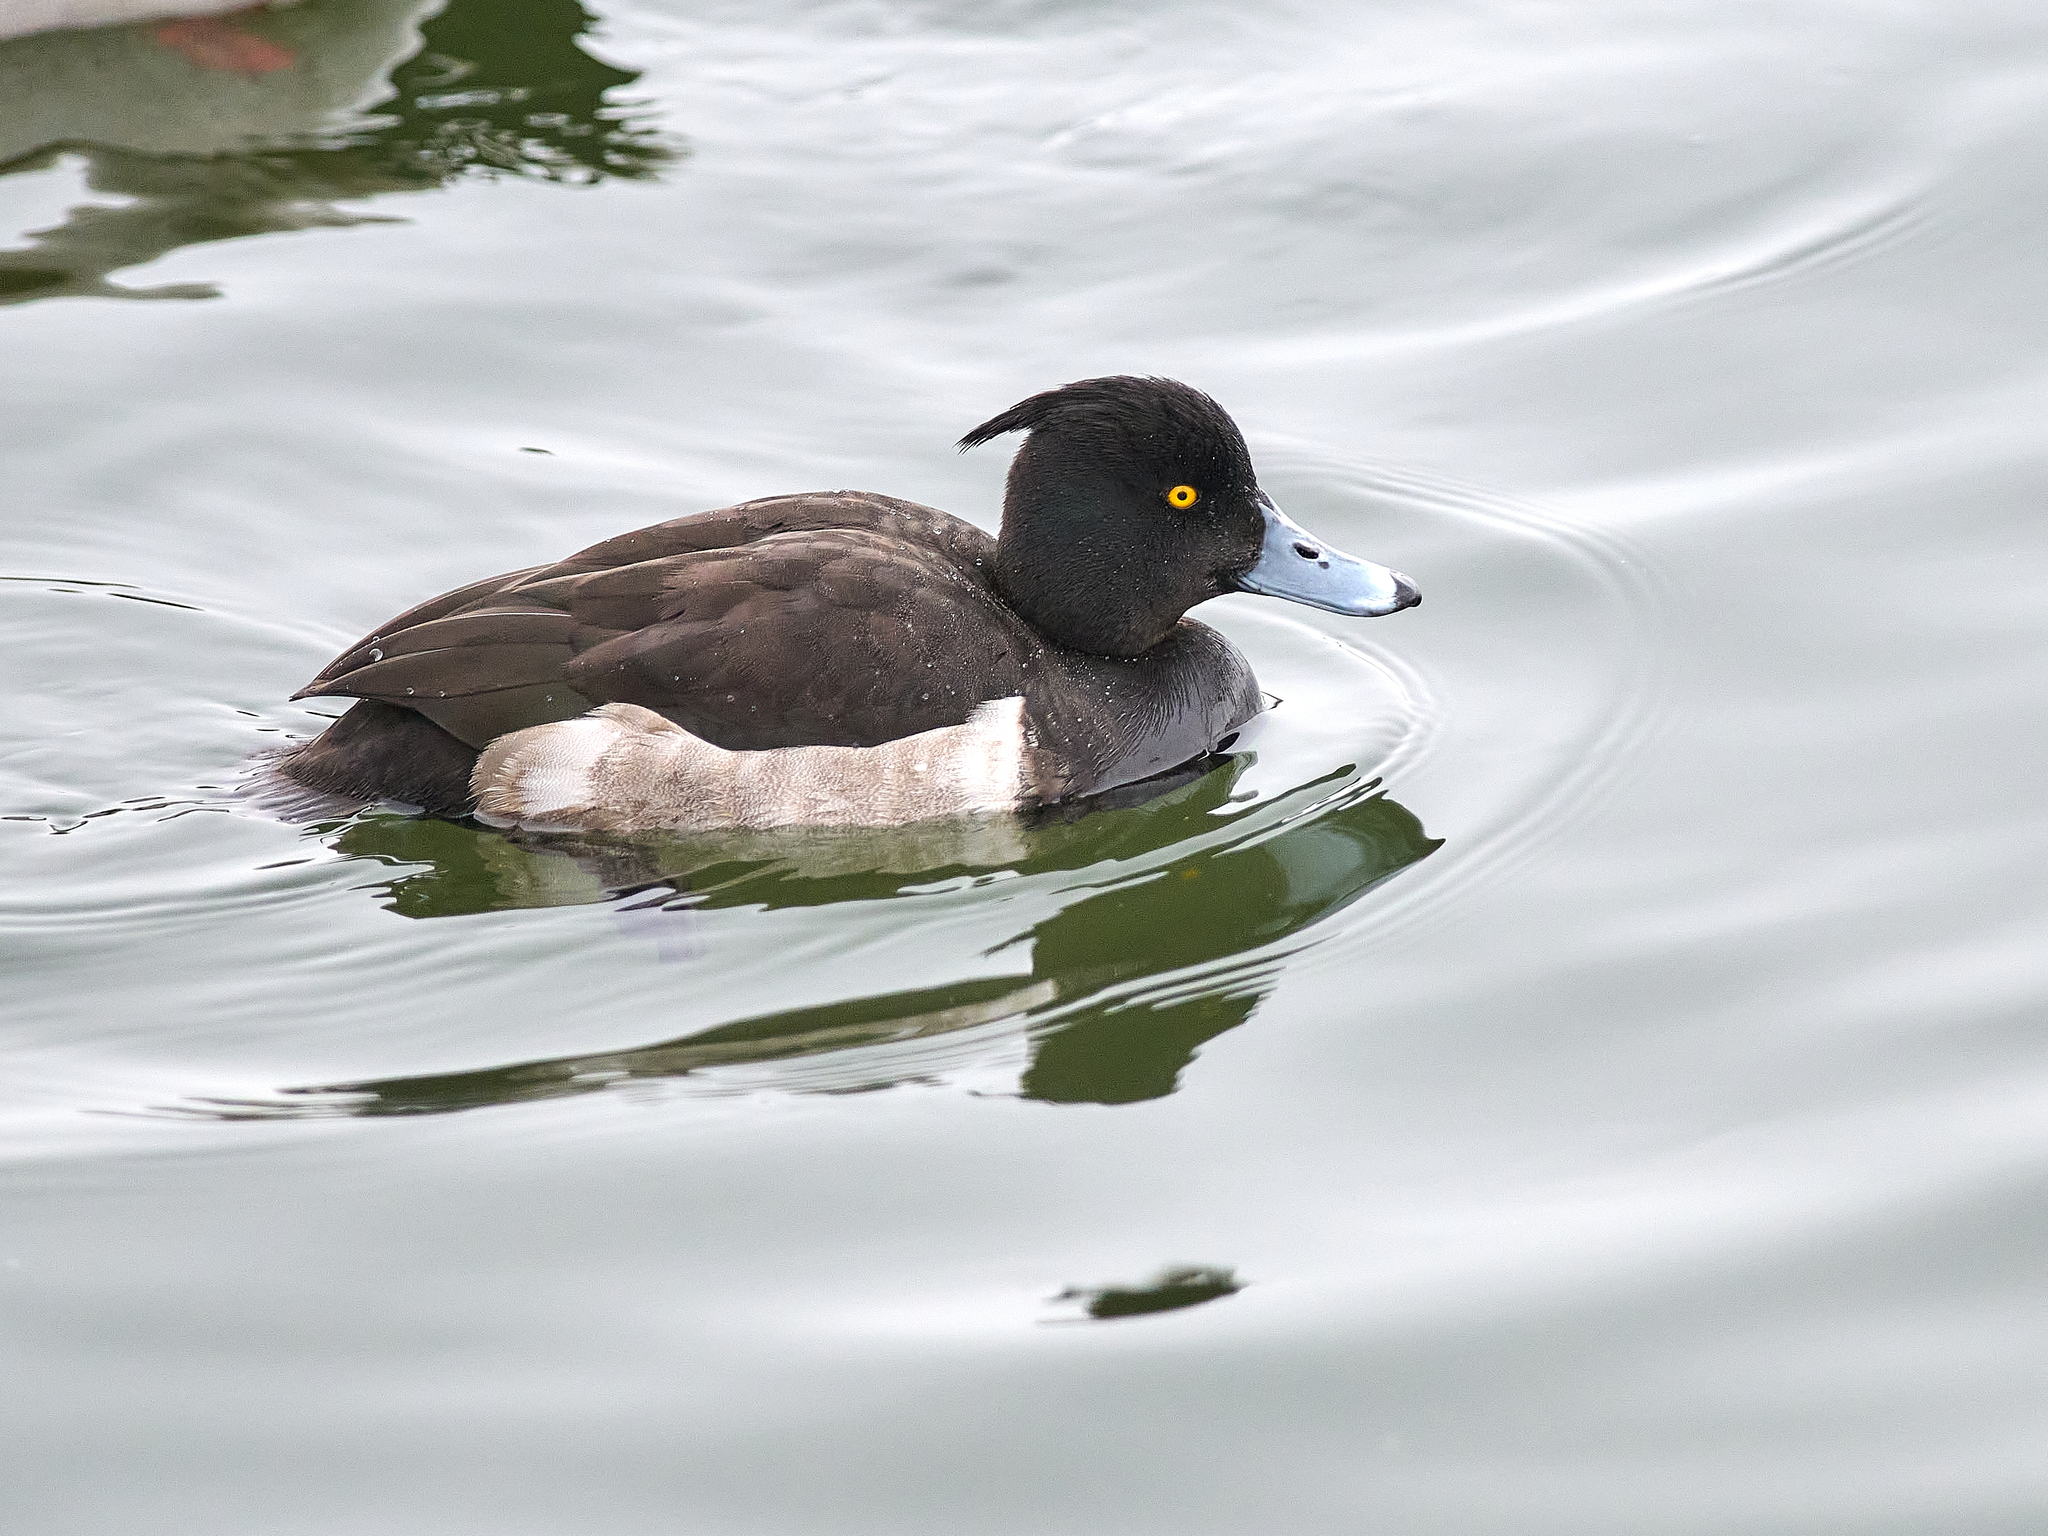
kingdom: Animalia
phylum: Chordata
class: Aves
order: Anseriformes
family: Anatidae
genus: Aythya
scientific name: Aythya fuligula
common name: Tufted duck
